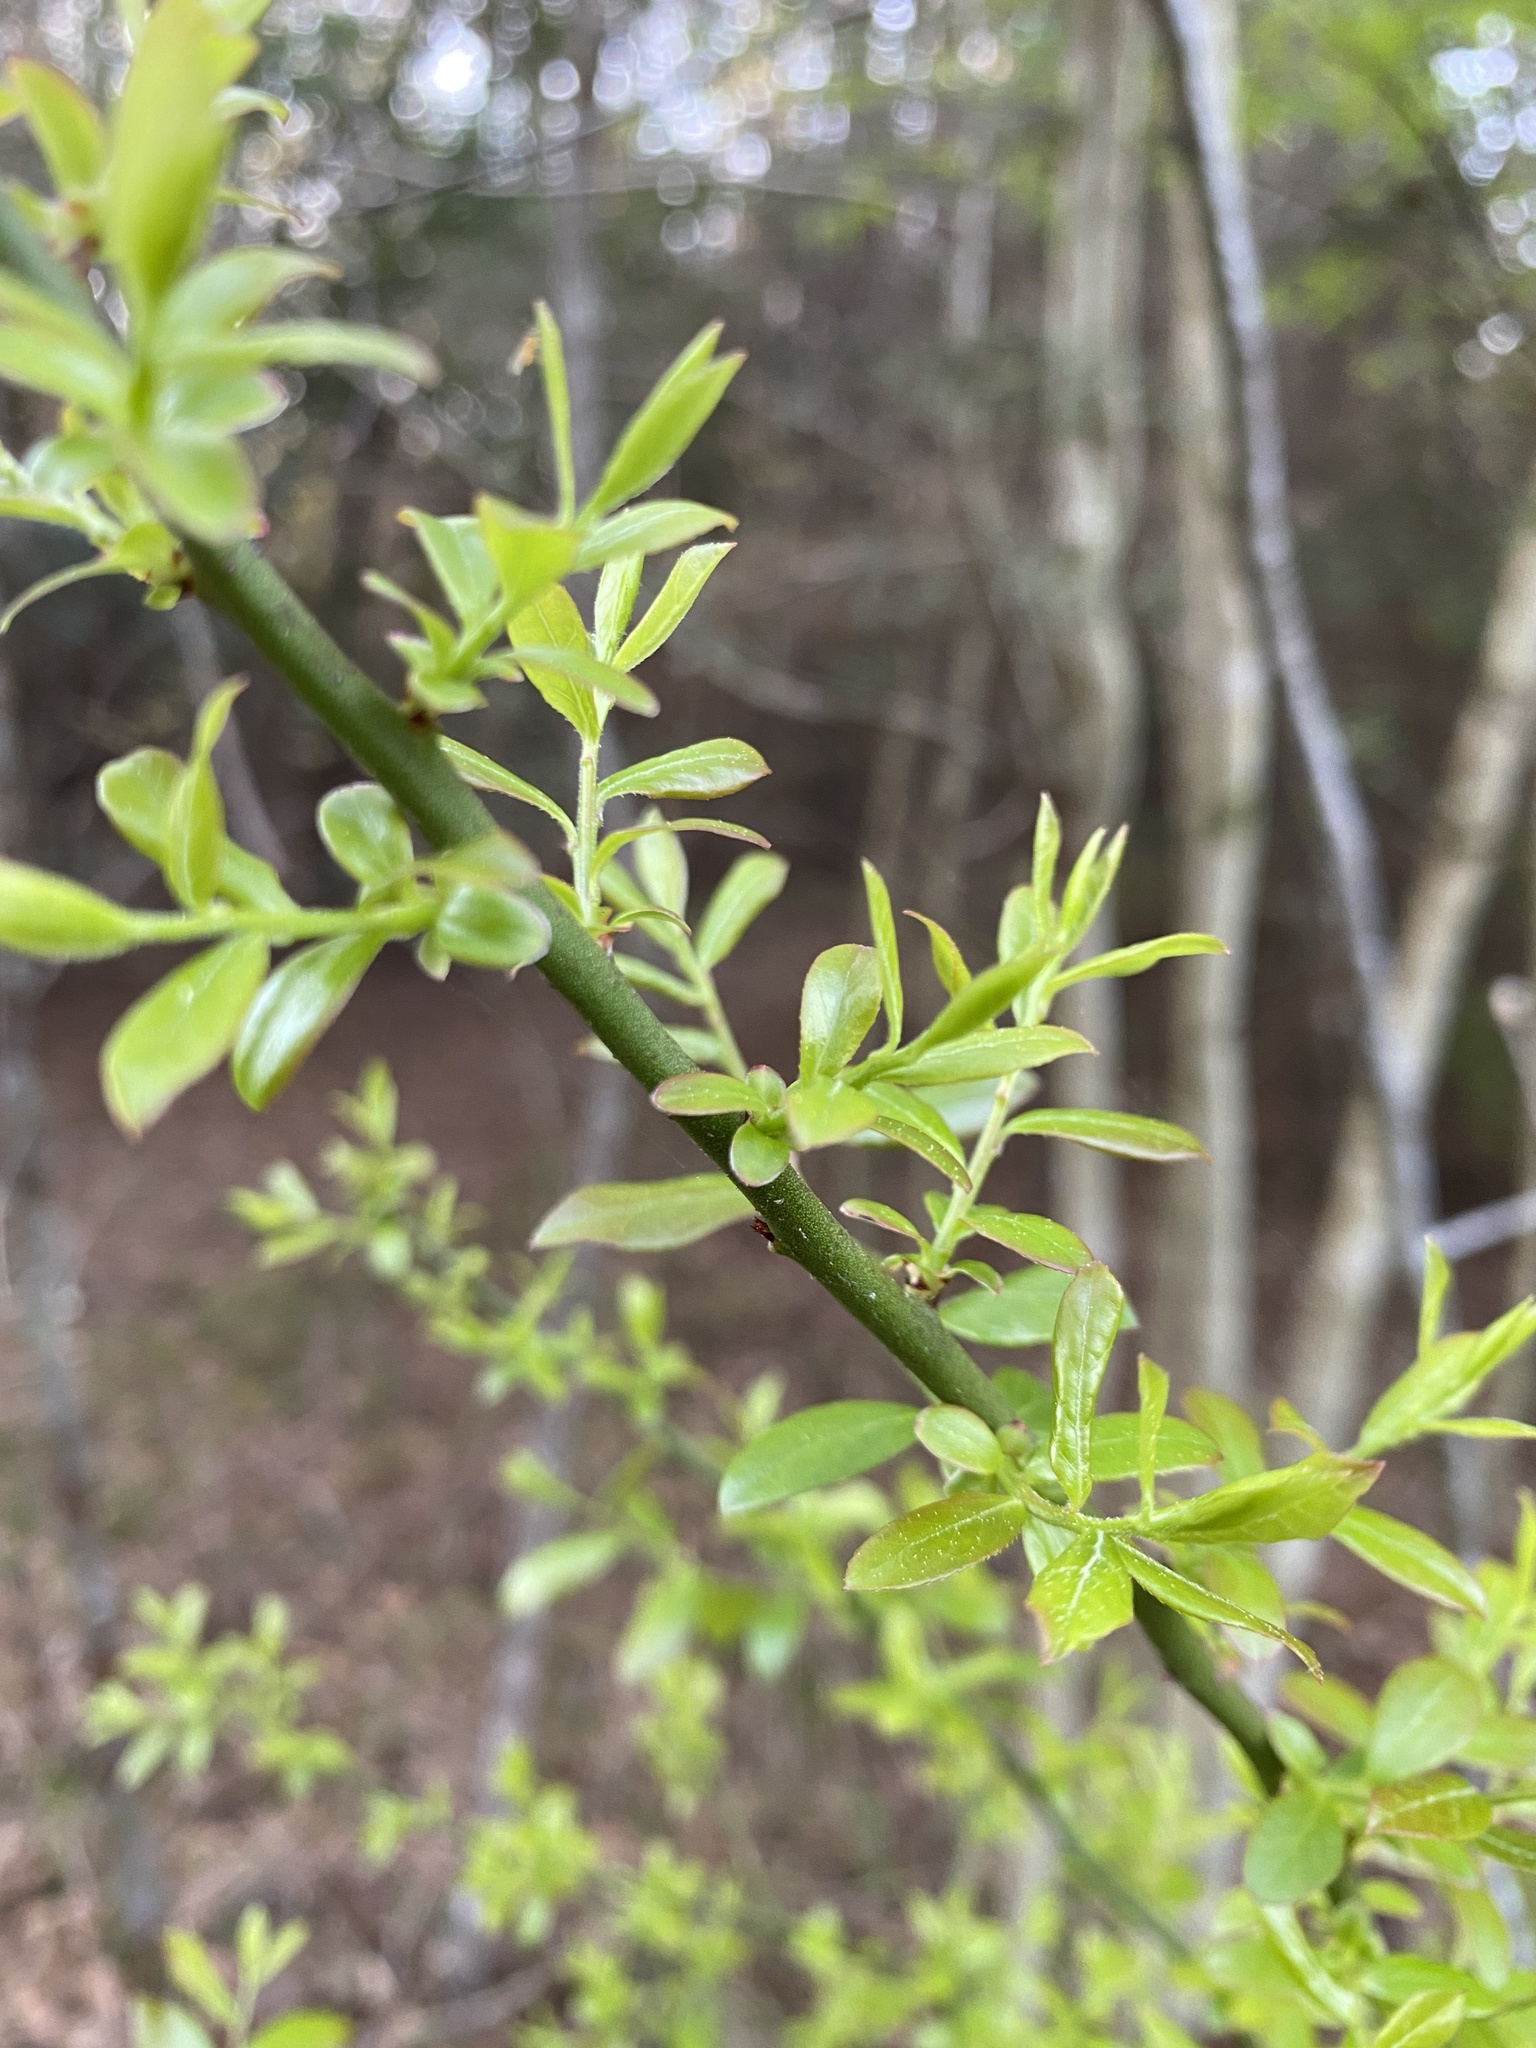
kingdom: Plantae
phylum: Tracheophyta
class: Magnoliopsida
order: Ericales
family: Ericaceae
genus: Vaccinium
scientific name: Vaccinium corymbosum
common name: Blueberry
